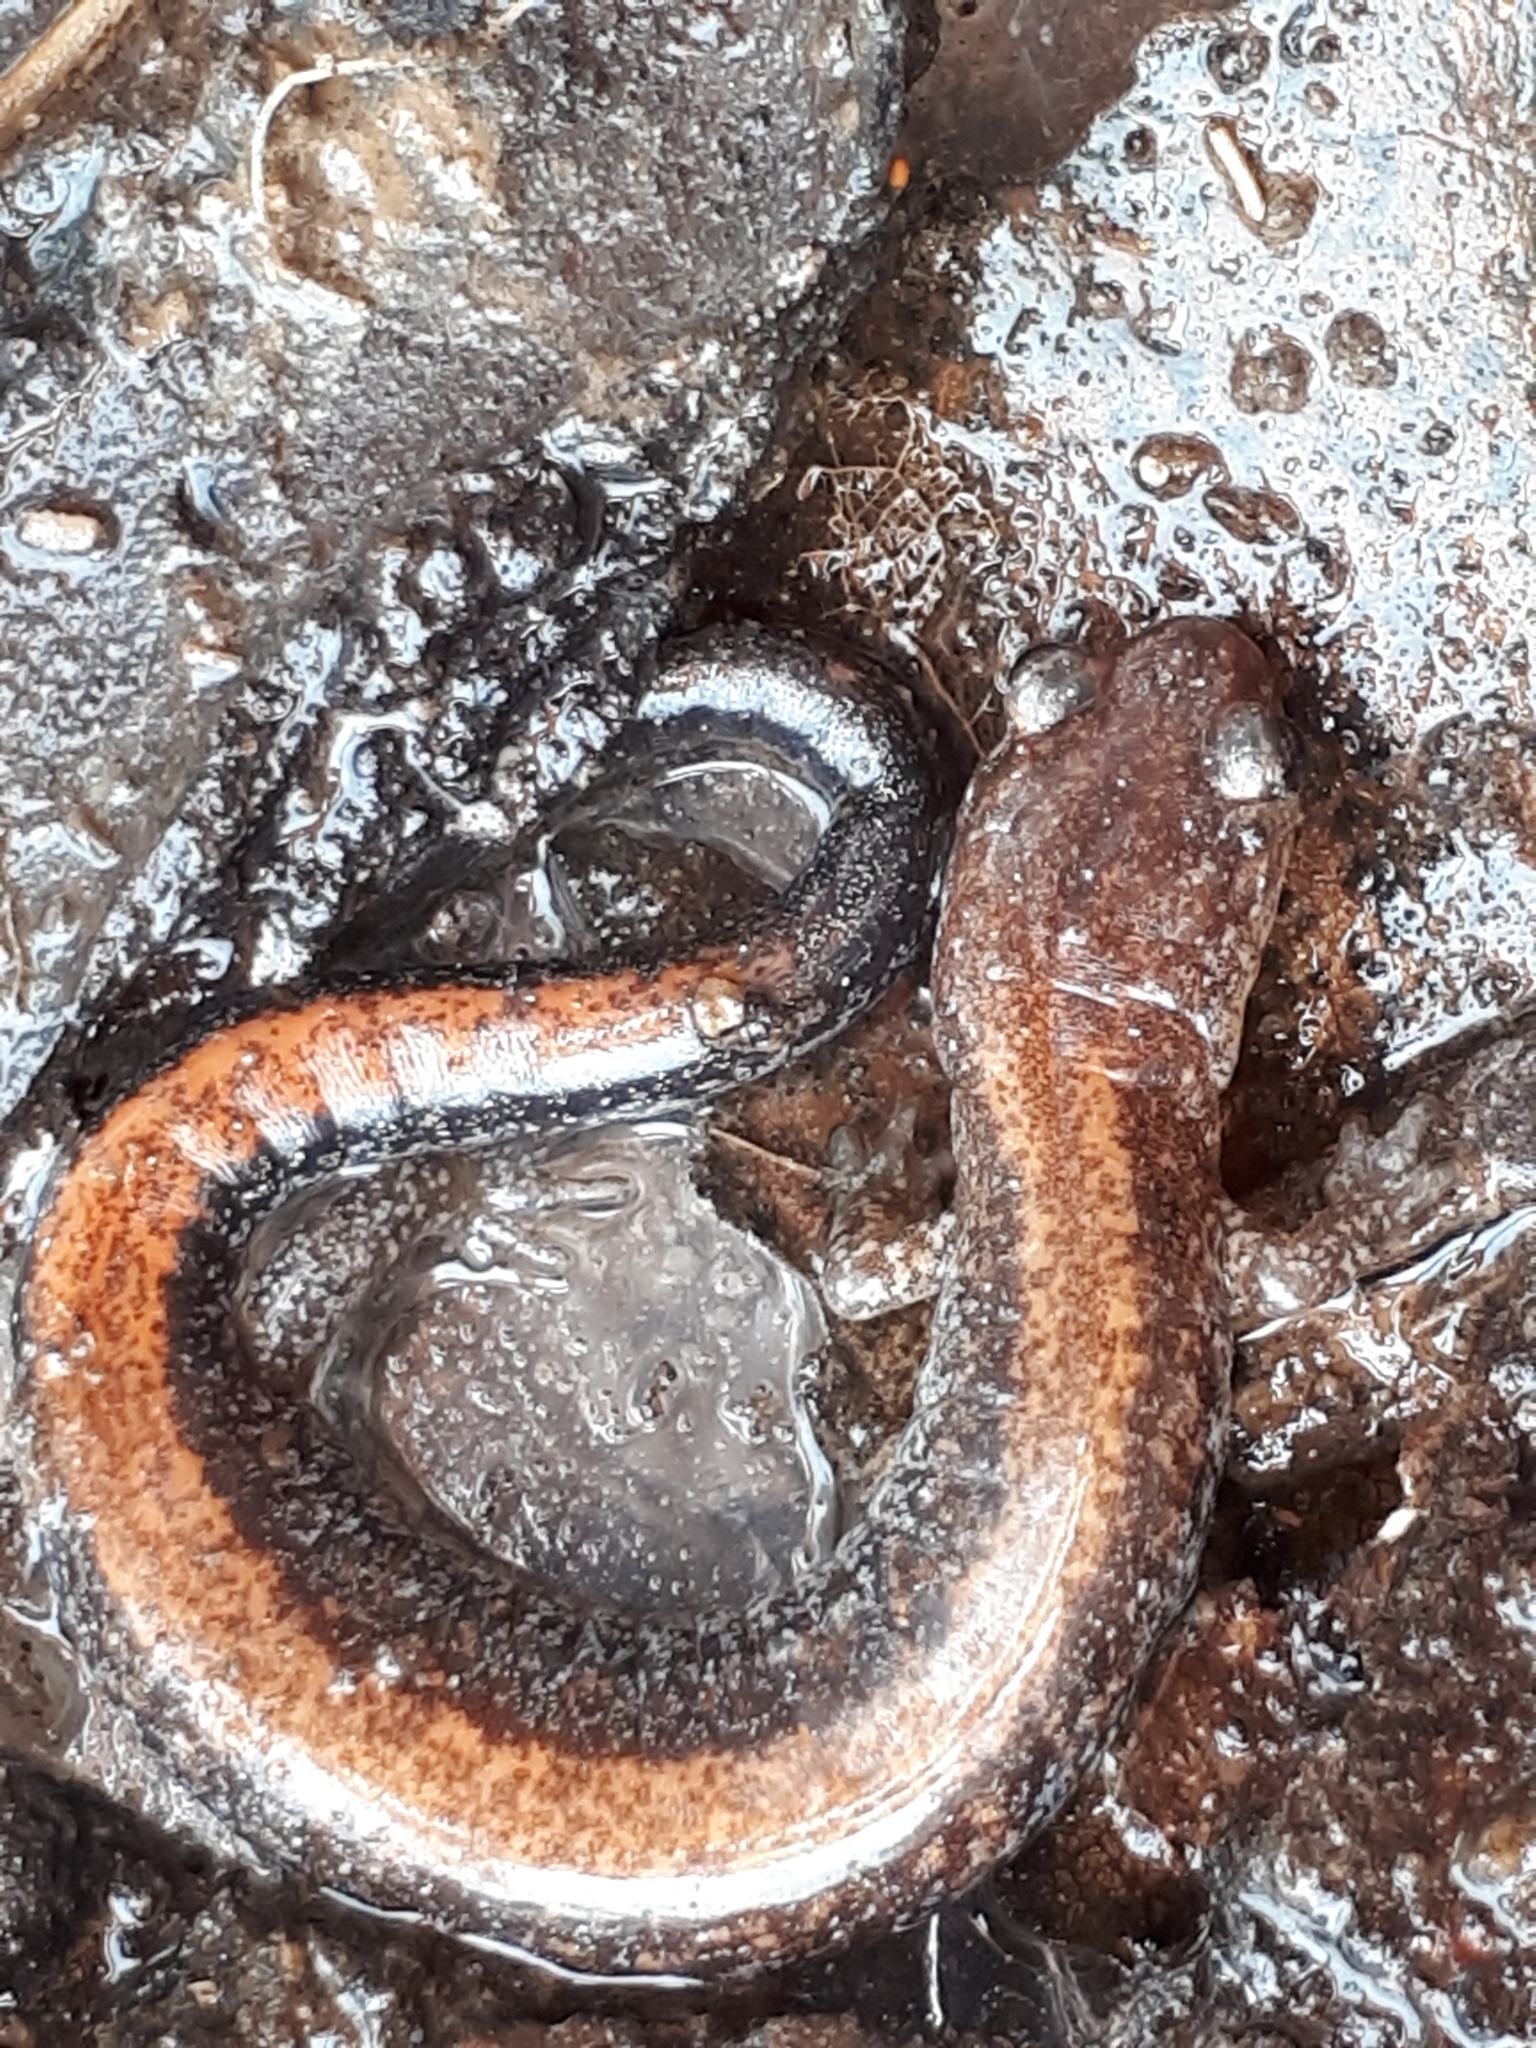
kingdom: Animalia
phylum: Chordata
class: Amphibia
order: Caudata
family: Plethodontidae
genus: Plethodon
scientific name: Plethodon cinereus
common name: Redback salamander
